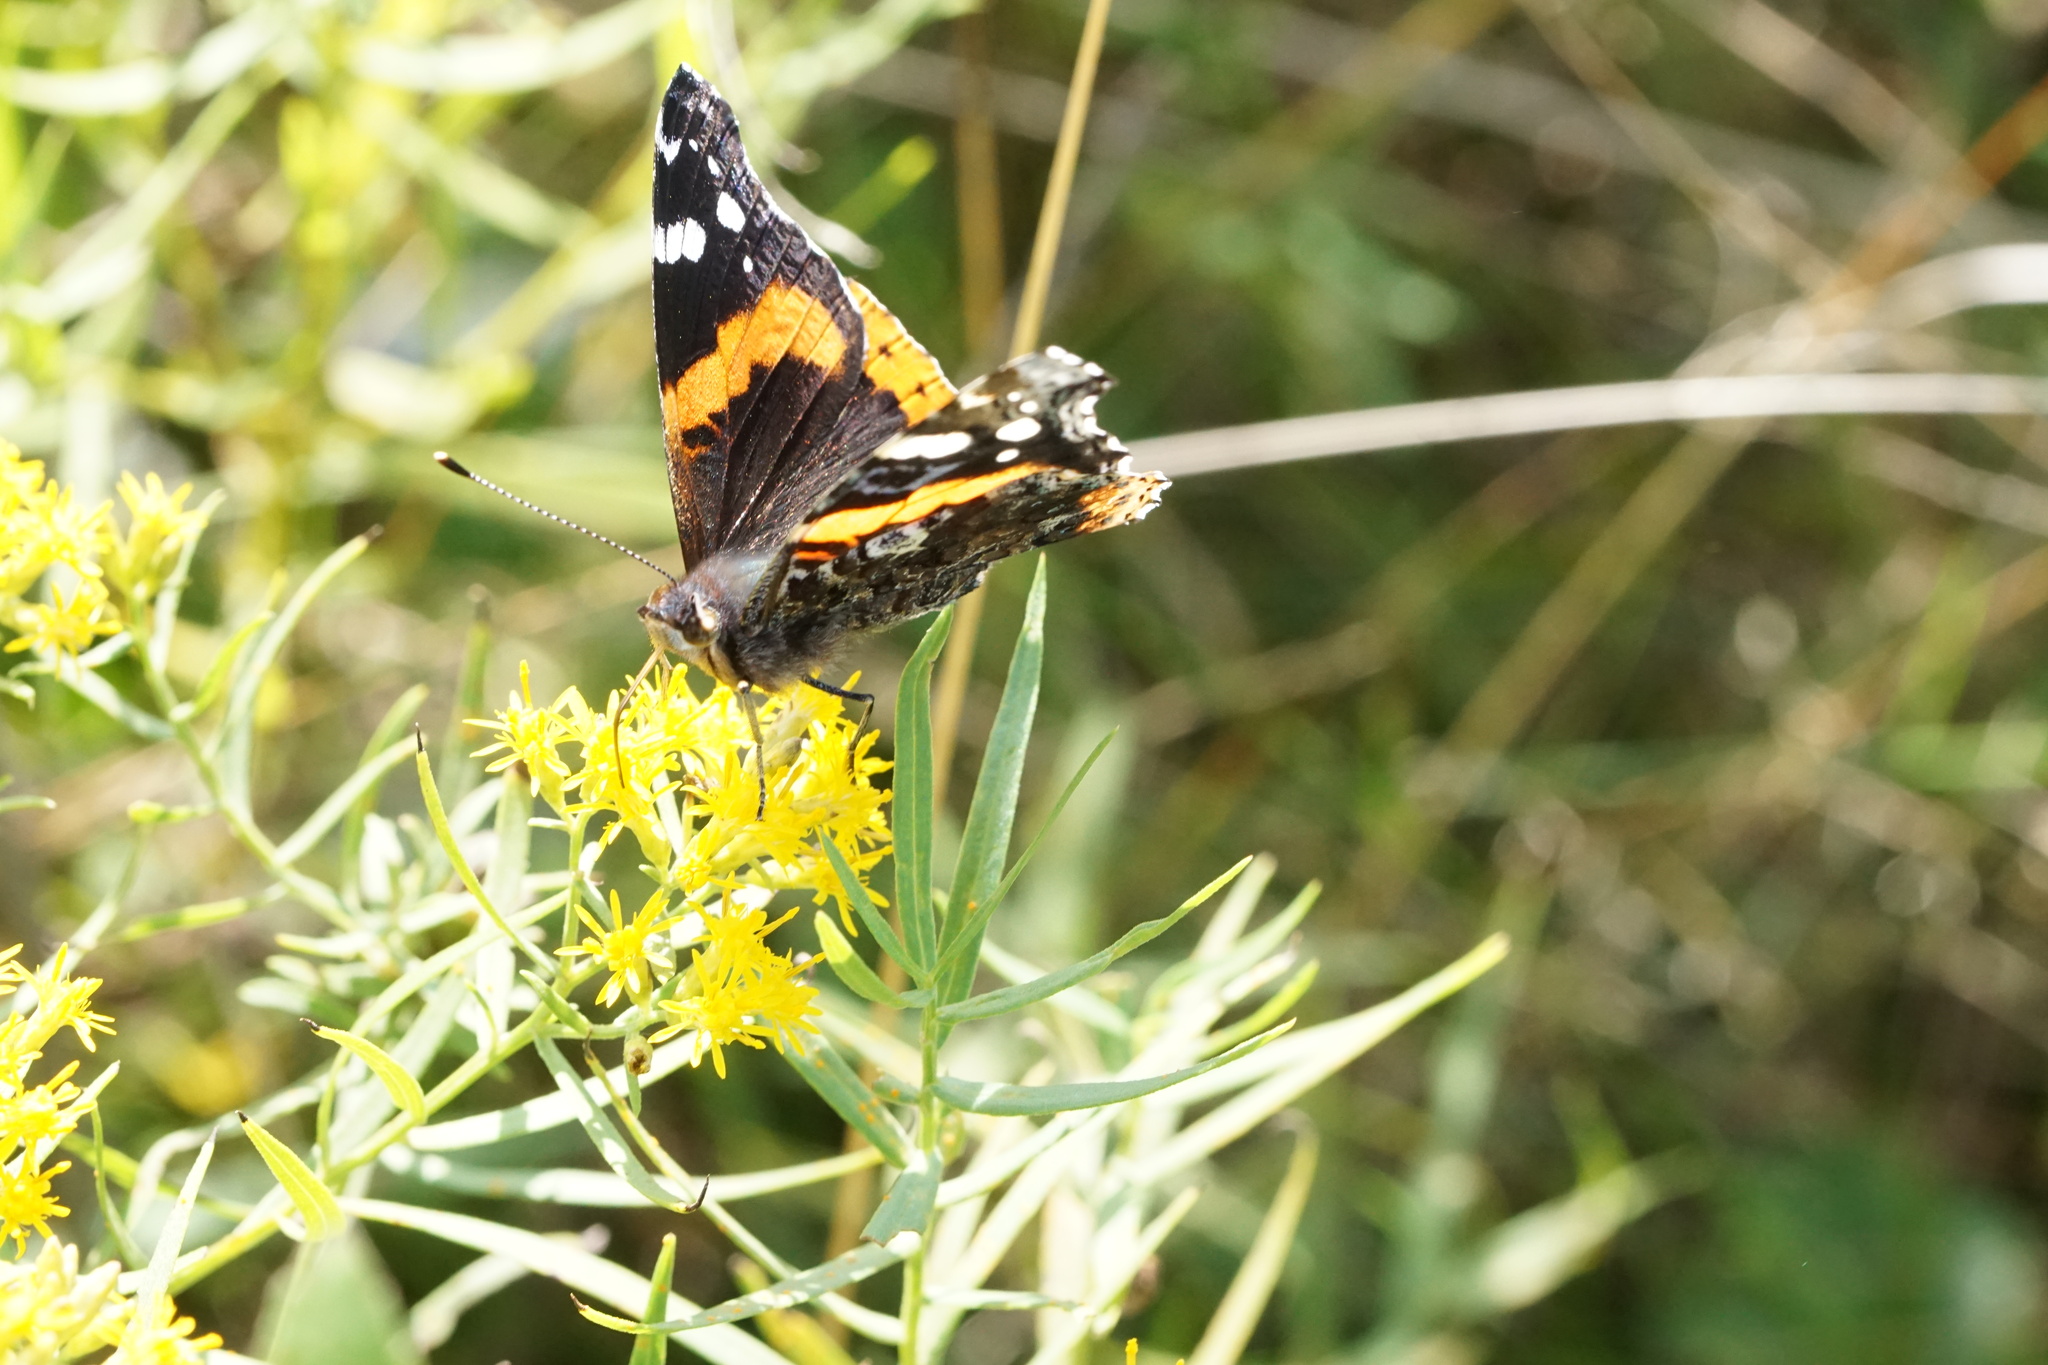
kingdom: Animalia
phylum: Arthropoda
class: Insecta
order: Lepidoptera
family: Nymphalidae
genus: Vanessa
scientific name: Vanessa atalanta
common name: Red admiral
